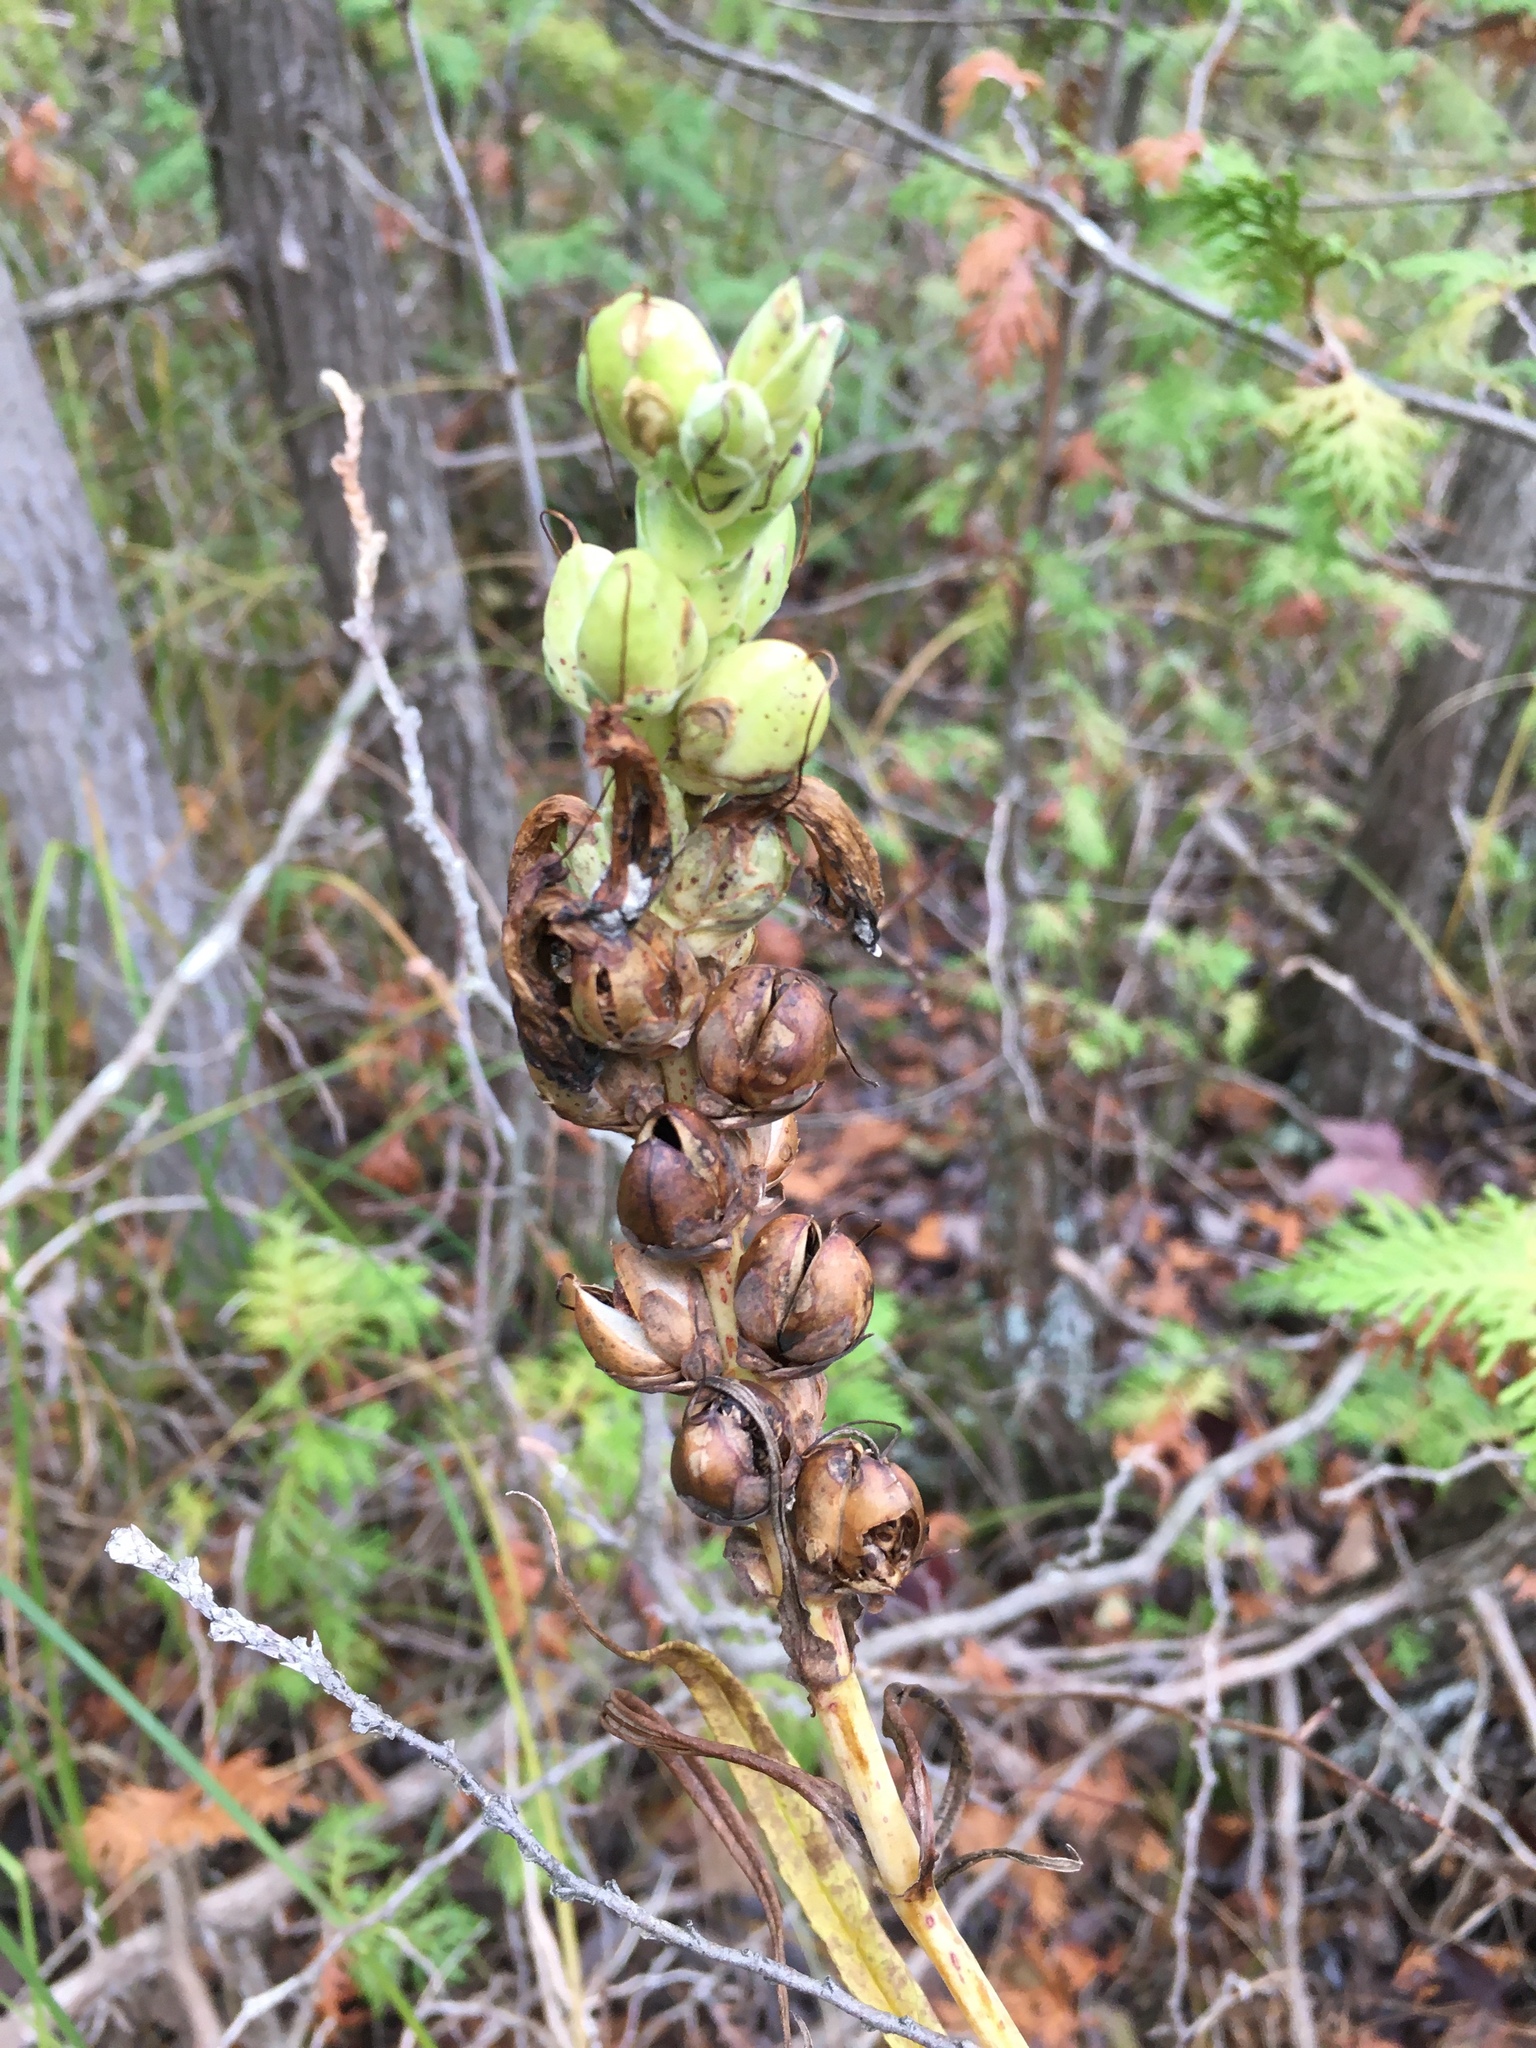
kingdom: Plantae
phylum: Tracheophyta
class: Magnoliopsida
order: Lamiales
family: Plantaginaceae
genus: Chelone
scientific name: Chelone glabra
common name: Snakehead
